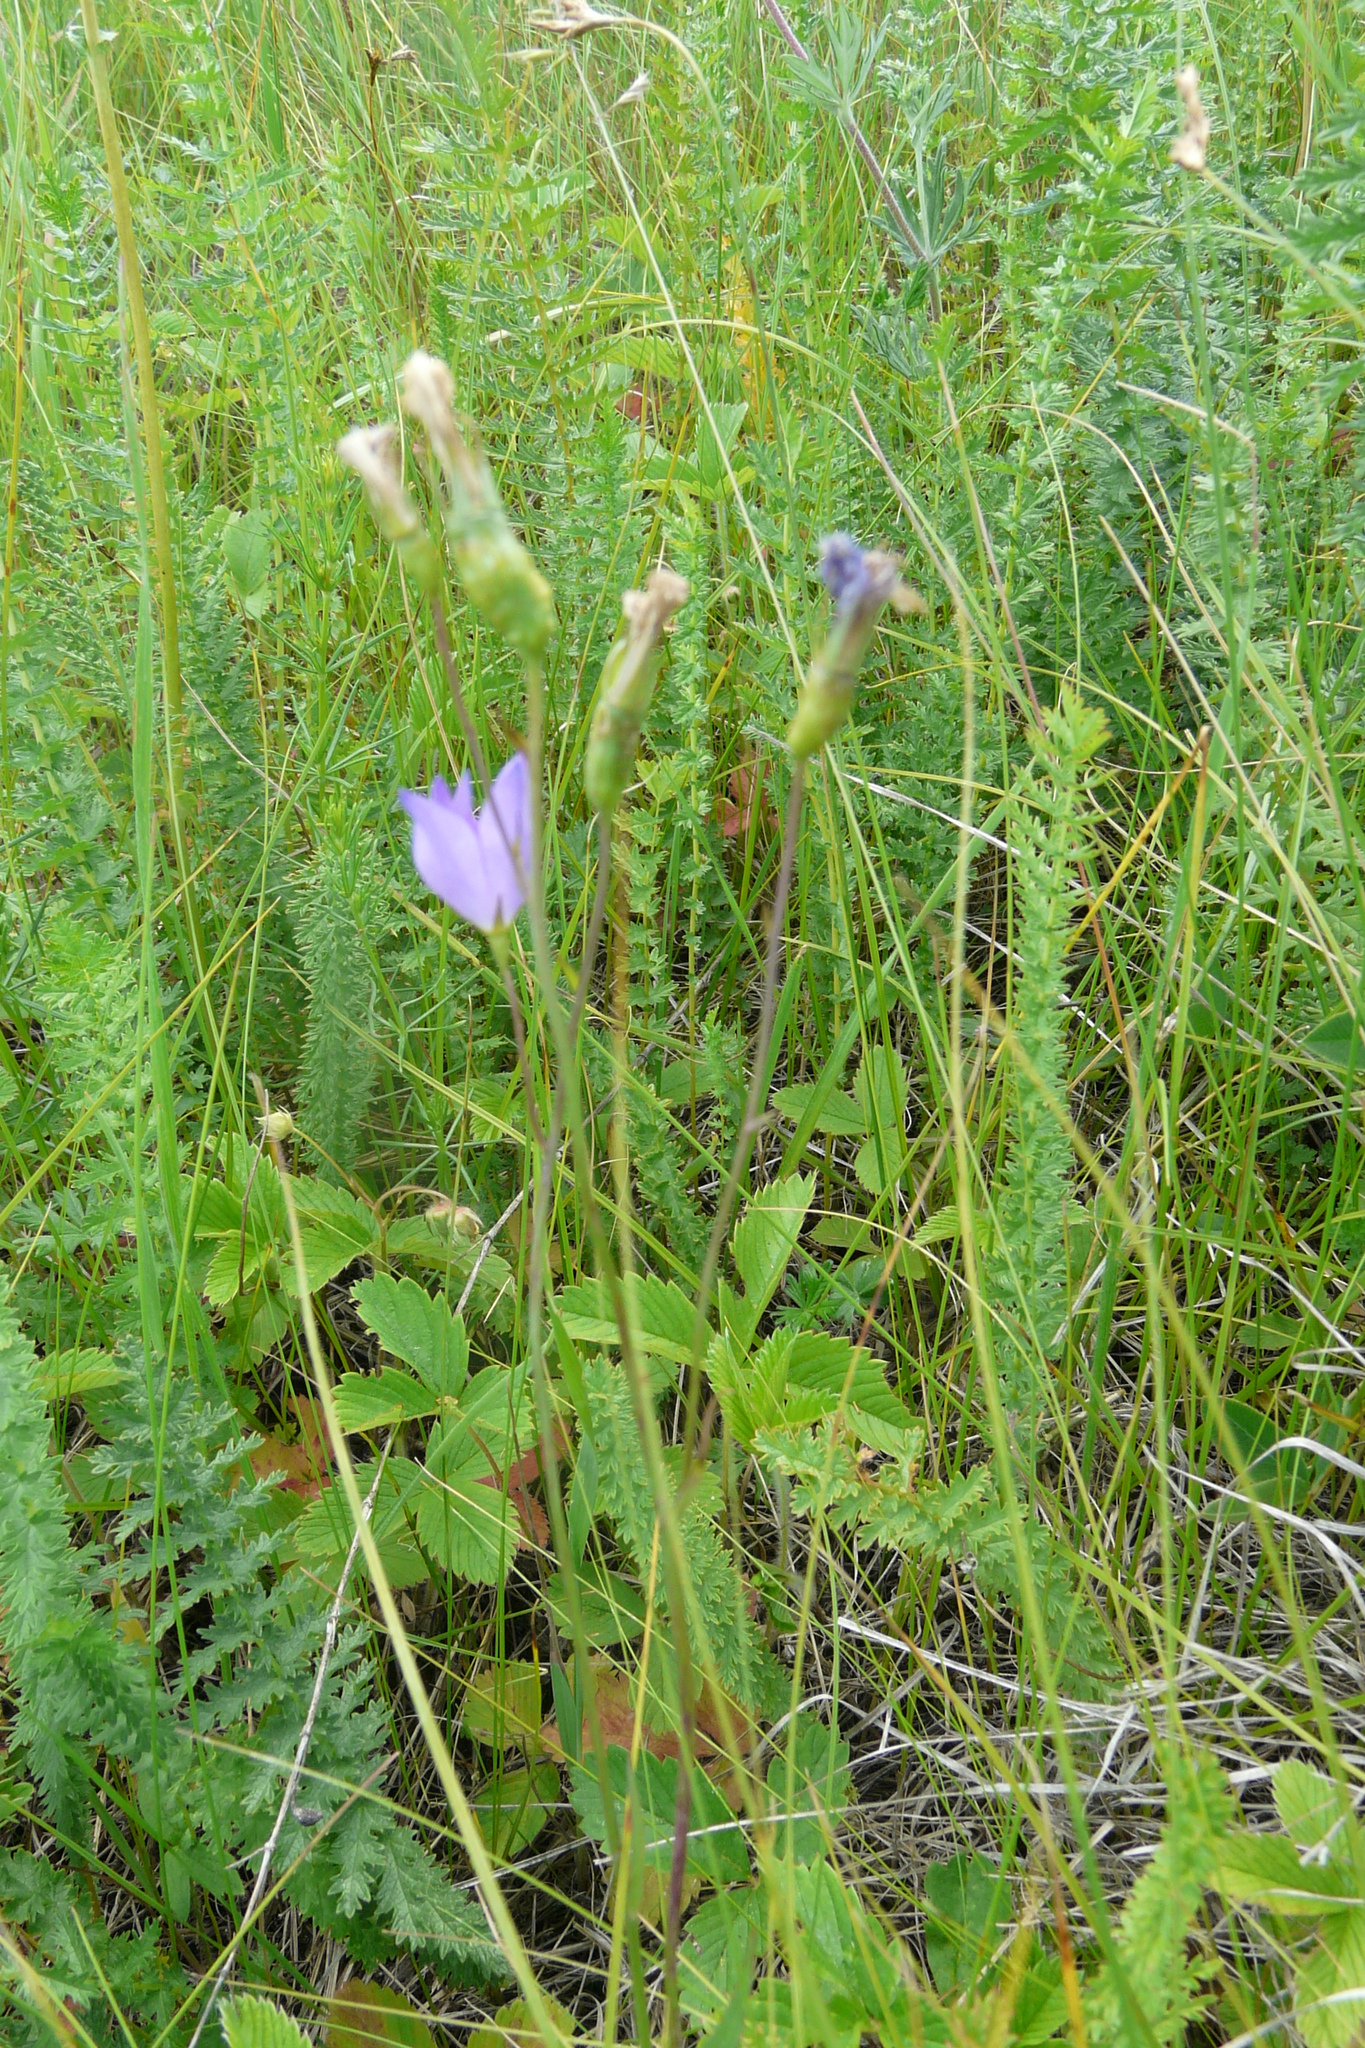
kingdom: Plantae
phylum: Tracheophyta
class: Magnoliopsida
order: Asterales
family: Campanulaceae
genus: Campanula
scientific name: Campanula stevenii
